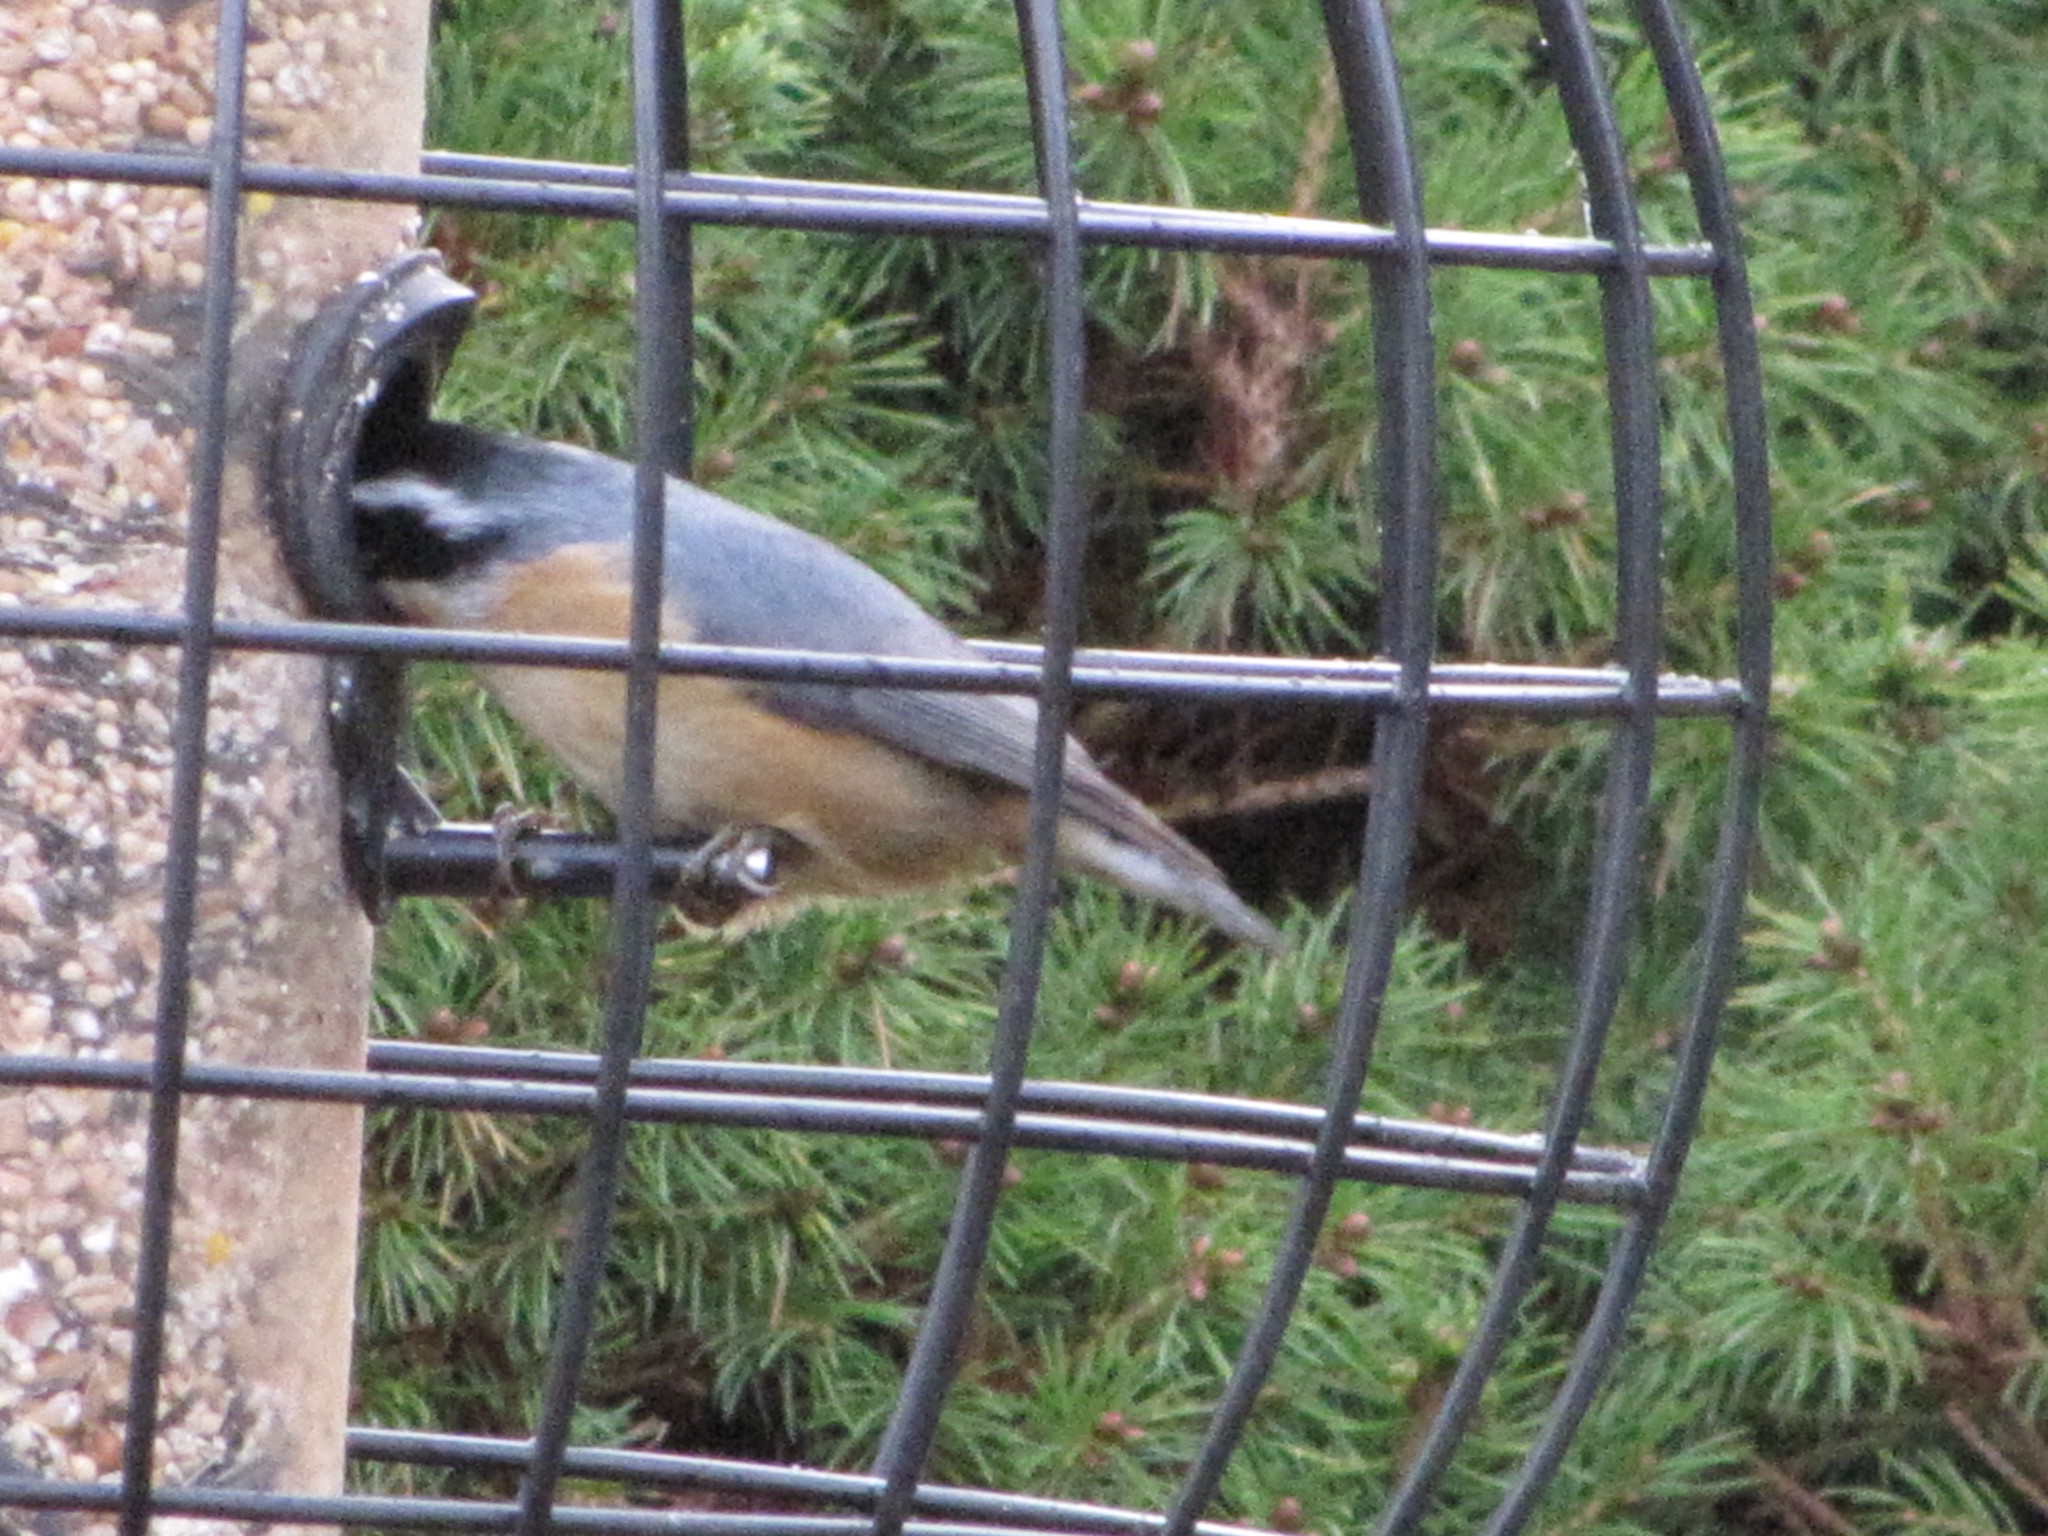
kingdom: Animalia
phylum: Chordata
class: Aves
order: Passeriformes
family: Sittidae
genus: Sitta
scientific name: Sitta canadensis
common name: Red-breasted nuthatch
